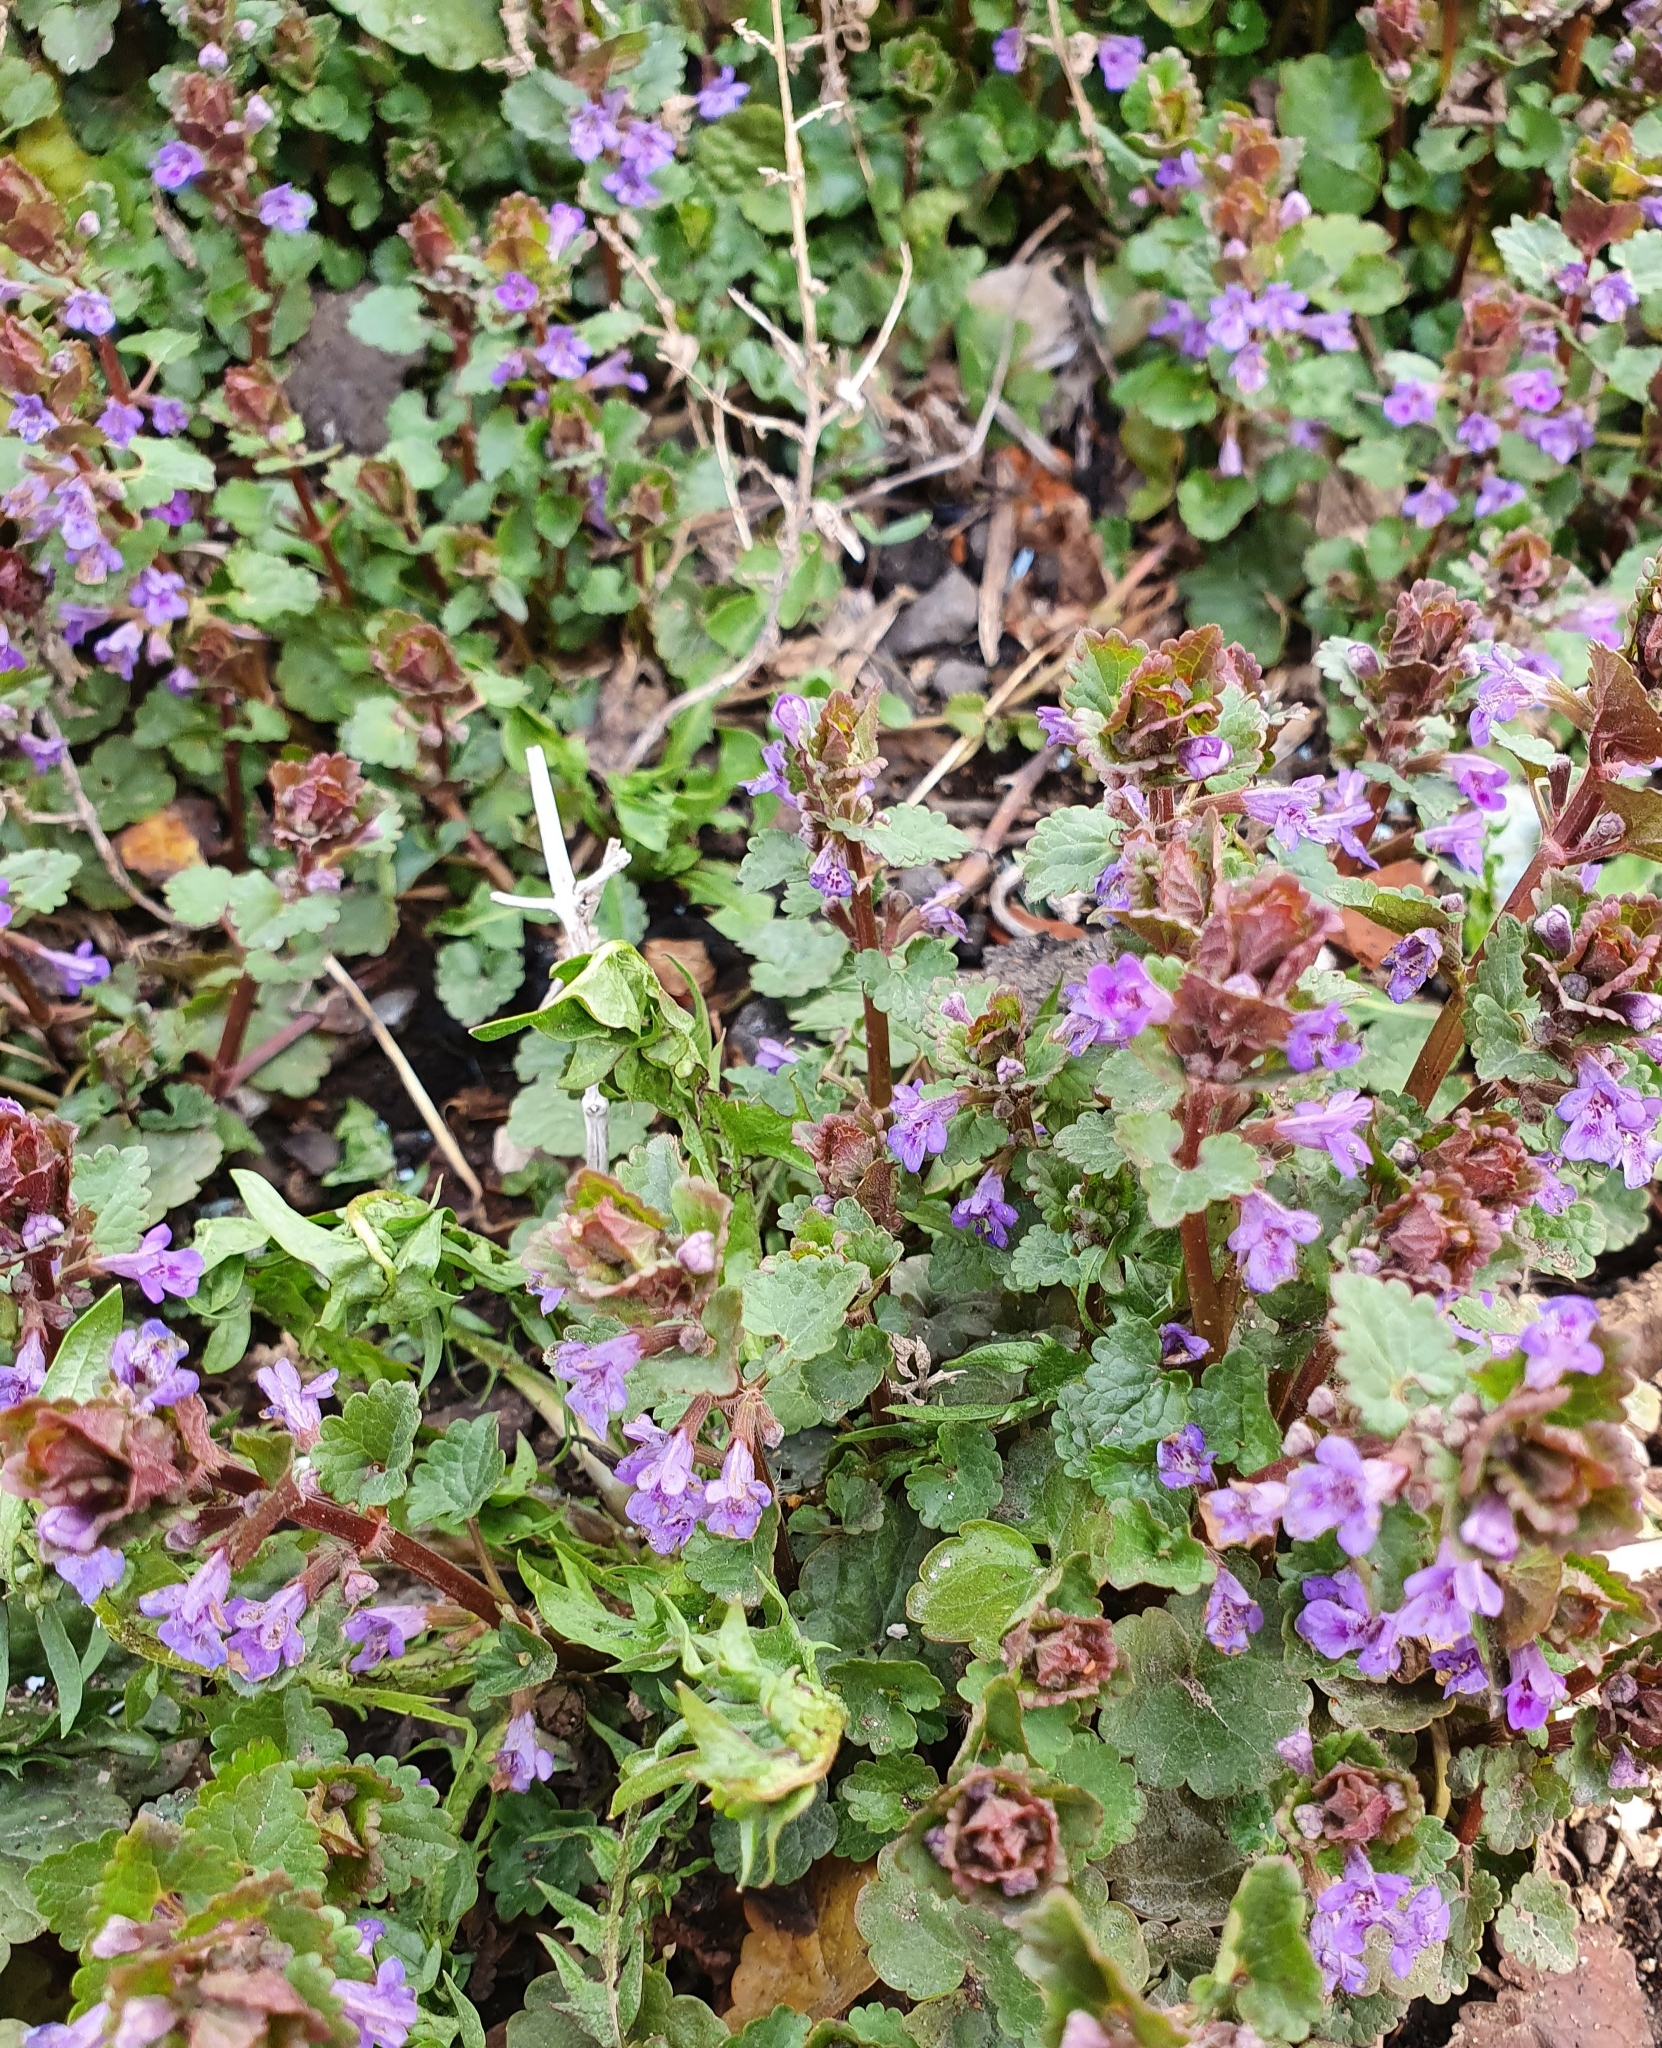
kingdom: Plantae
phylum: Tracheophyta
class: Magnoliopsida
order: Lamiales
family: Lamiaceae
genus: Glechoma
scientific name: Glechoma hederacea
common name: Ground ivy
